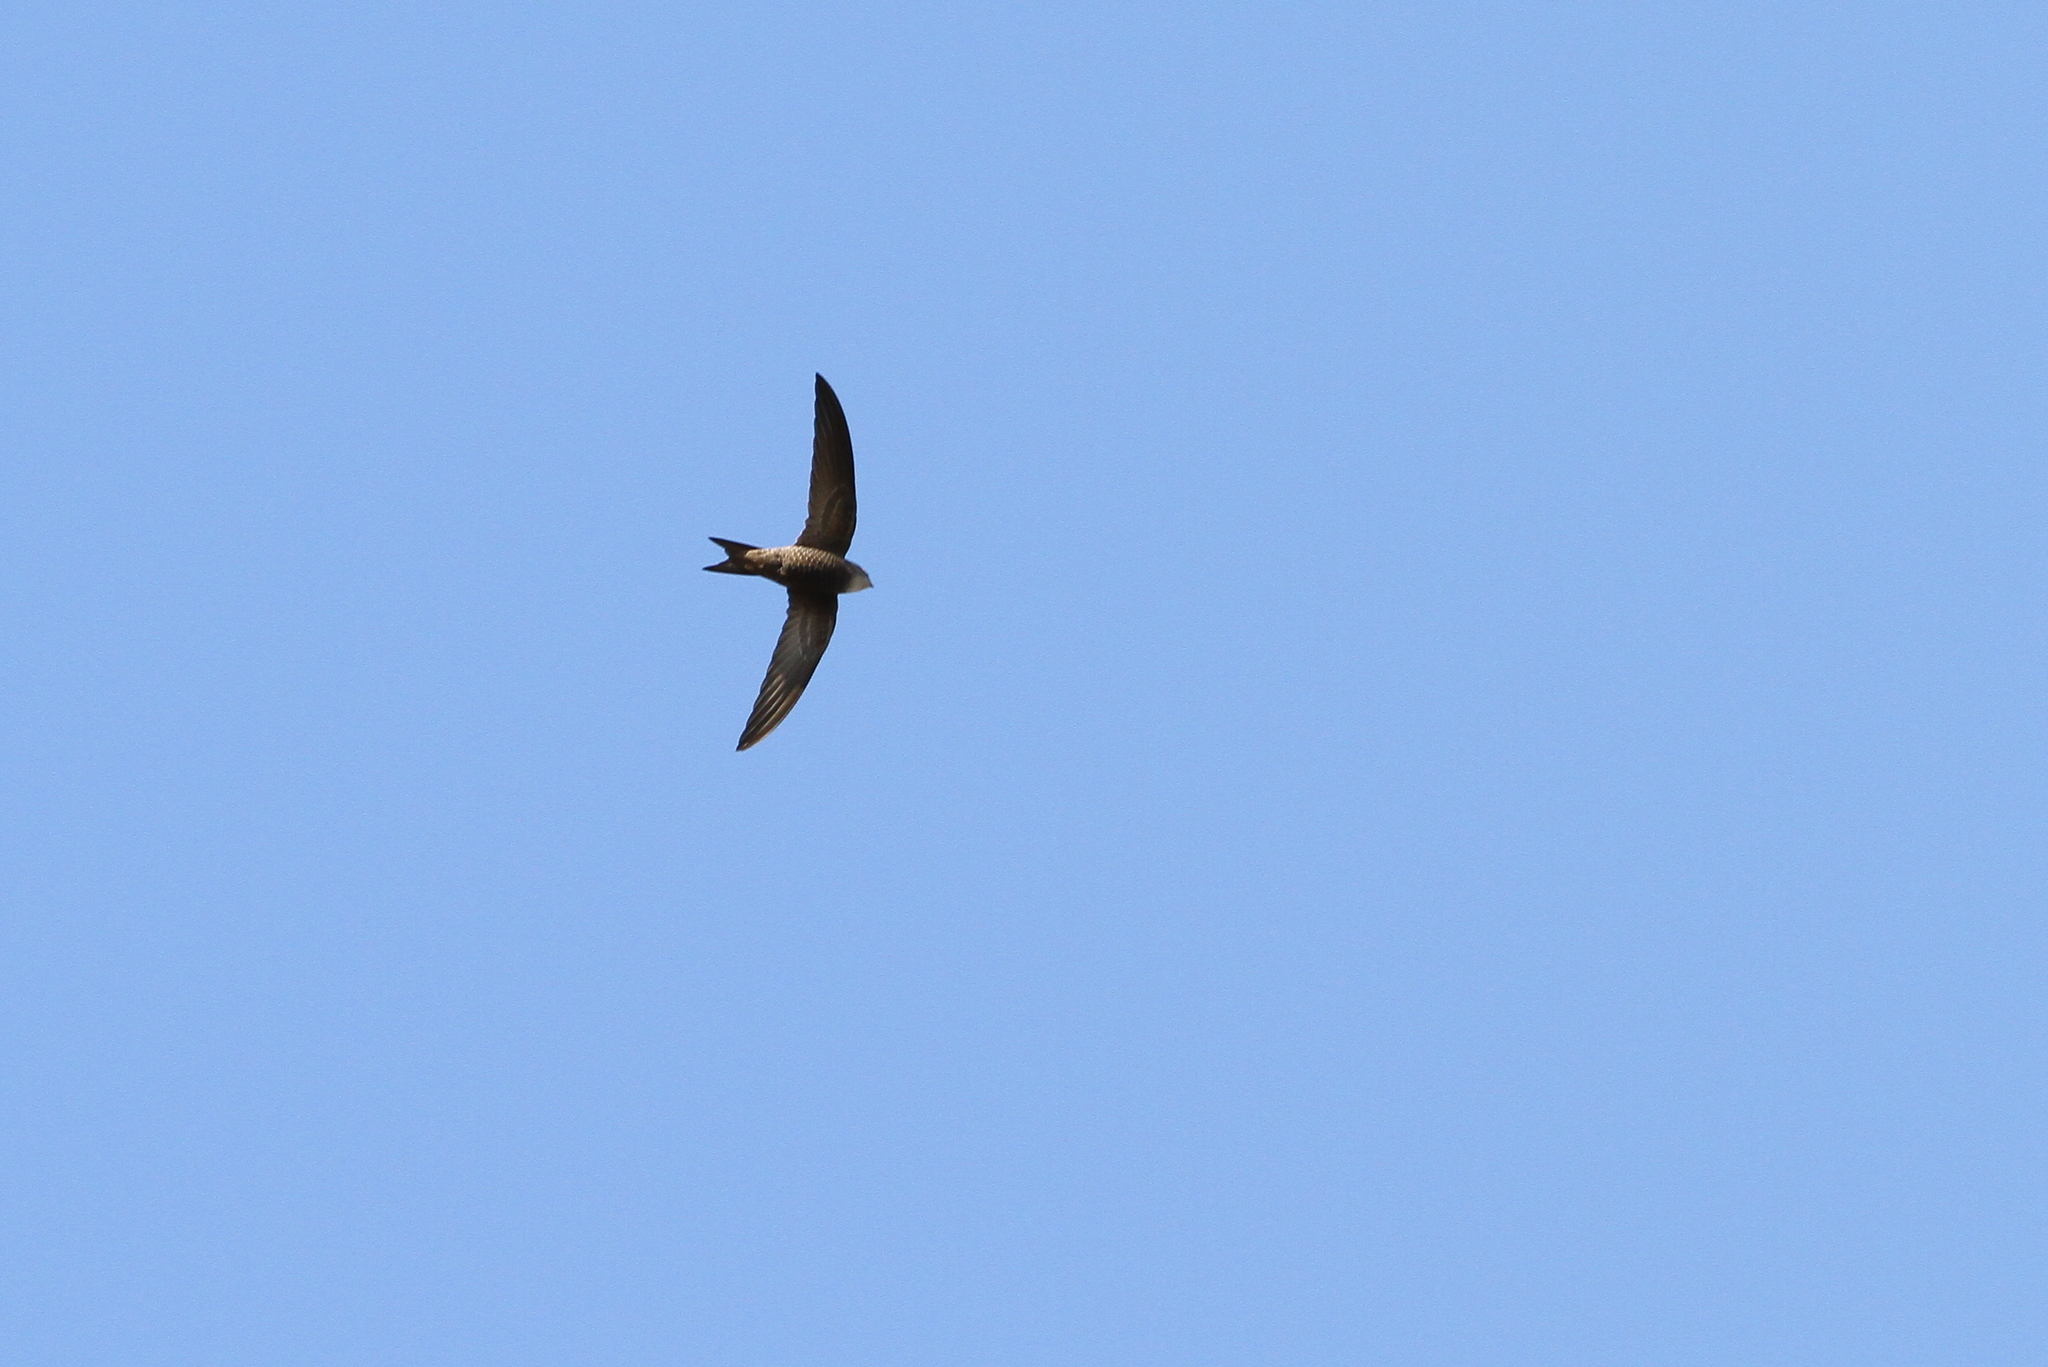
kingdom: Animalia
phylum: Chordata
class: Aves
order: Apodiformes
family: Apodidae
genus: Apus
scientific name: Apus pallidus
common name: Pallid swift
